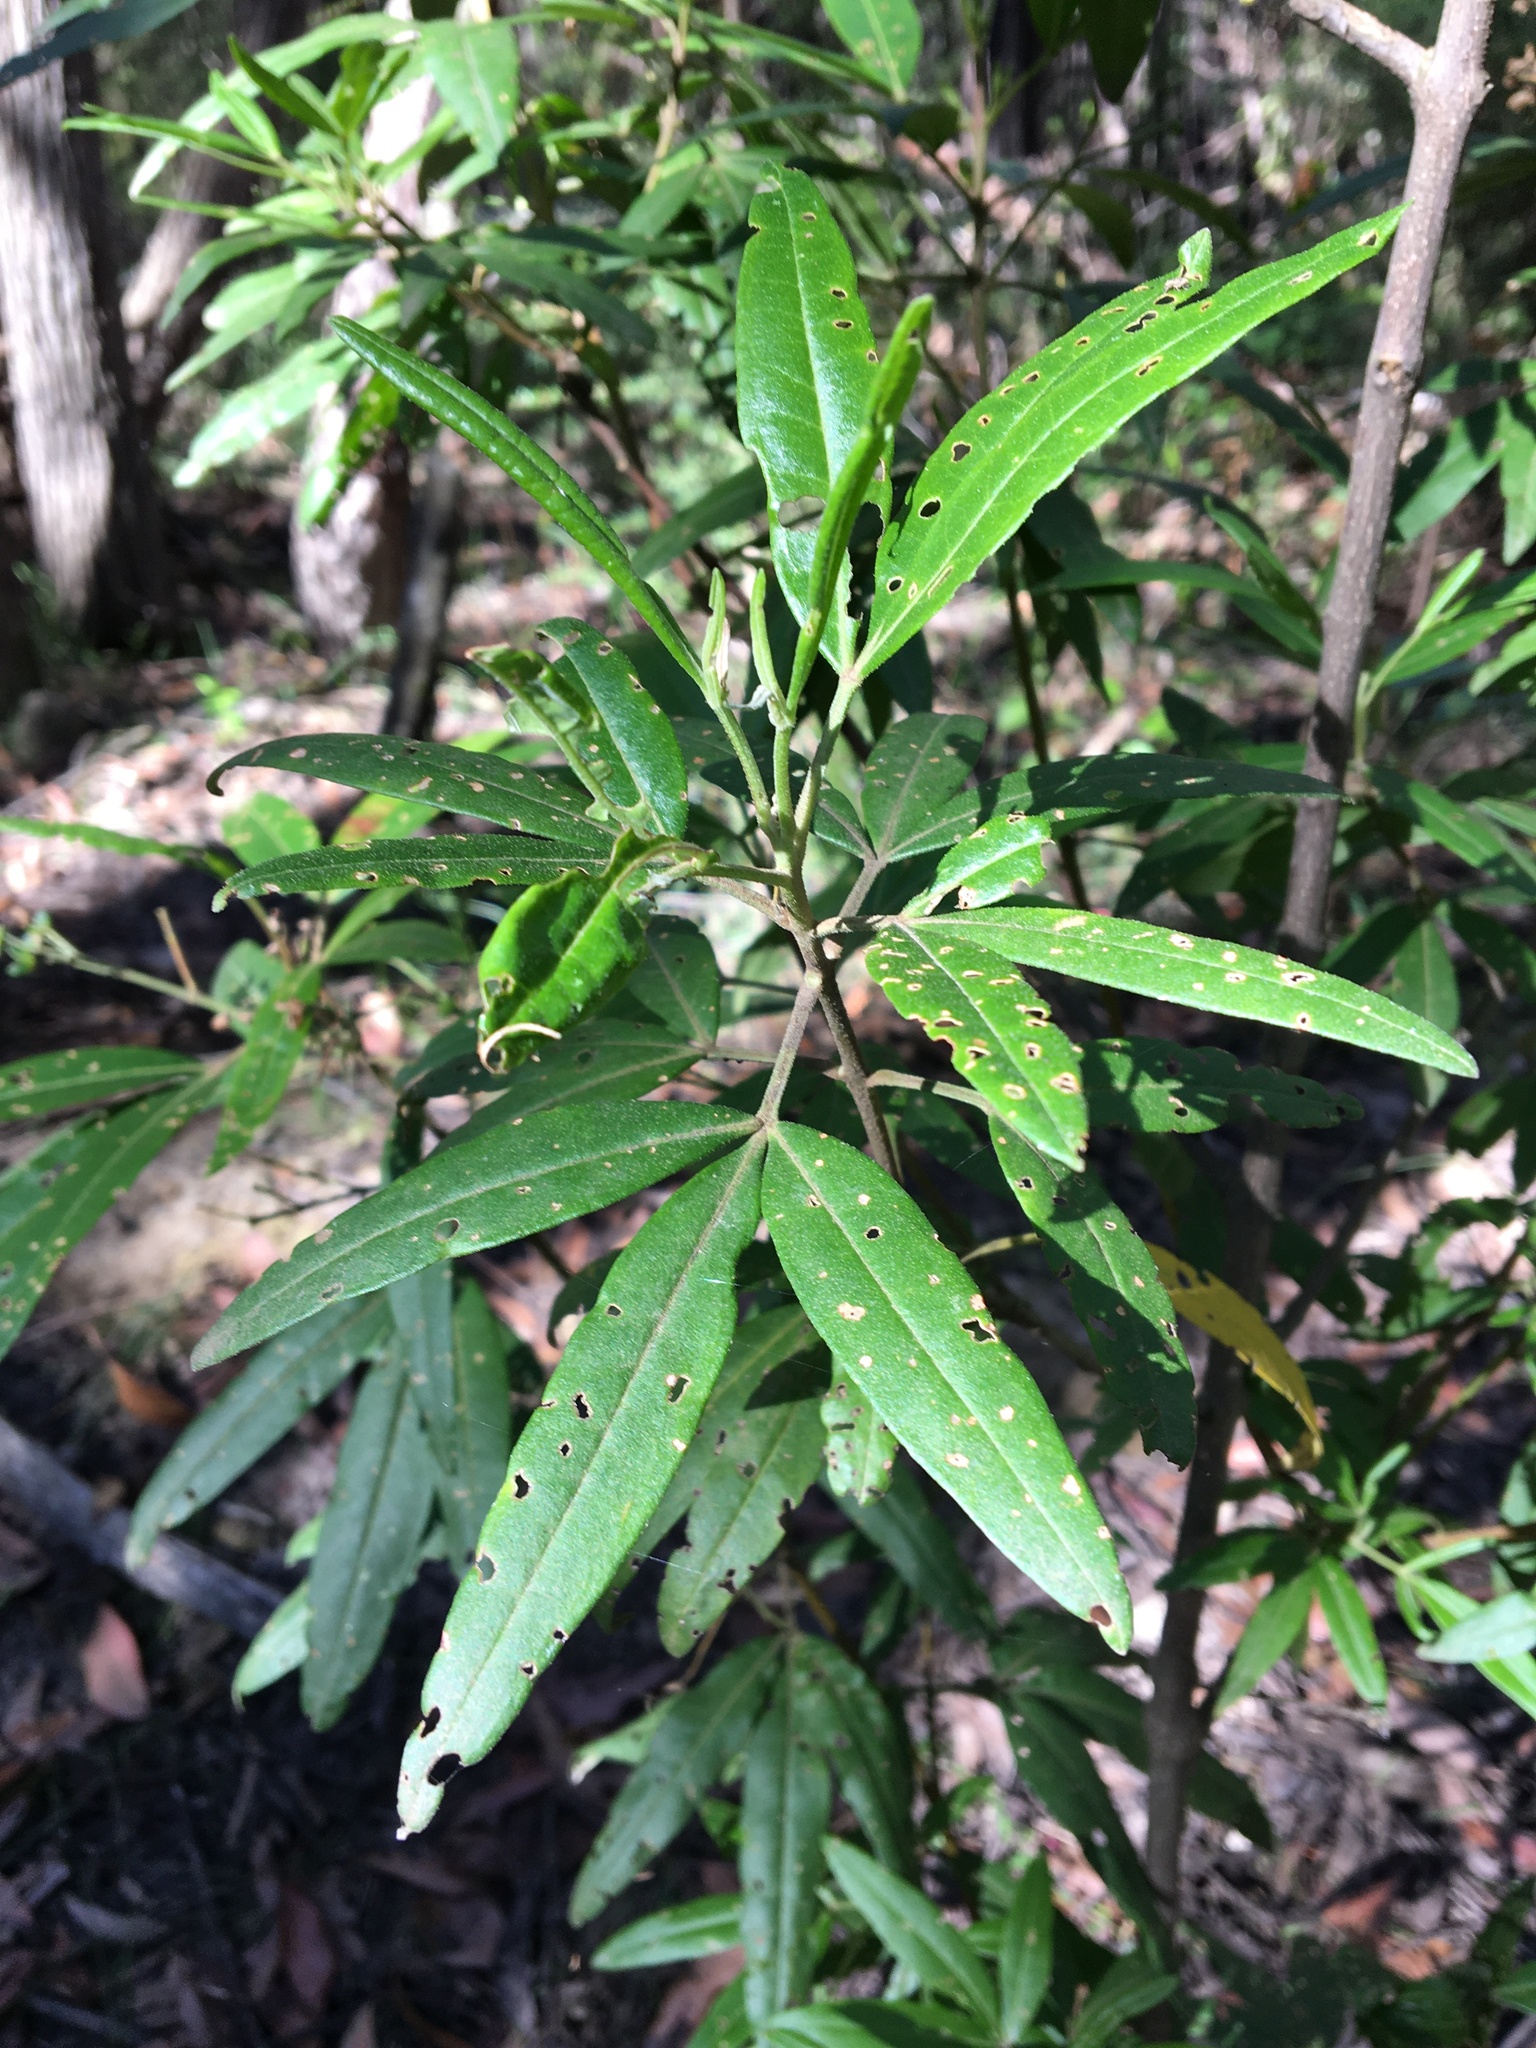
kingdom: Plantae
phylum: Tracheophyta
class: Magnoliopsida
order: Sapindales
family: Rutaceae
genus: Zieria
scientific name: Zieria arborescens
